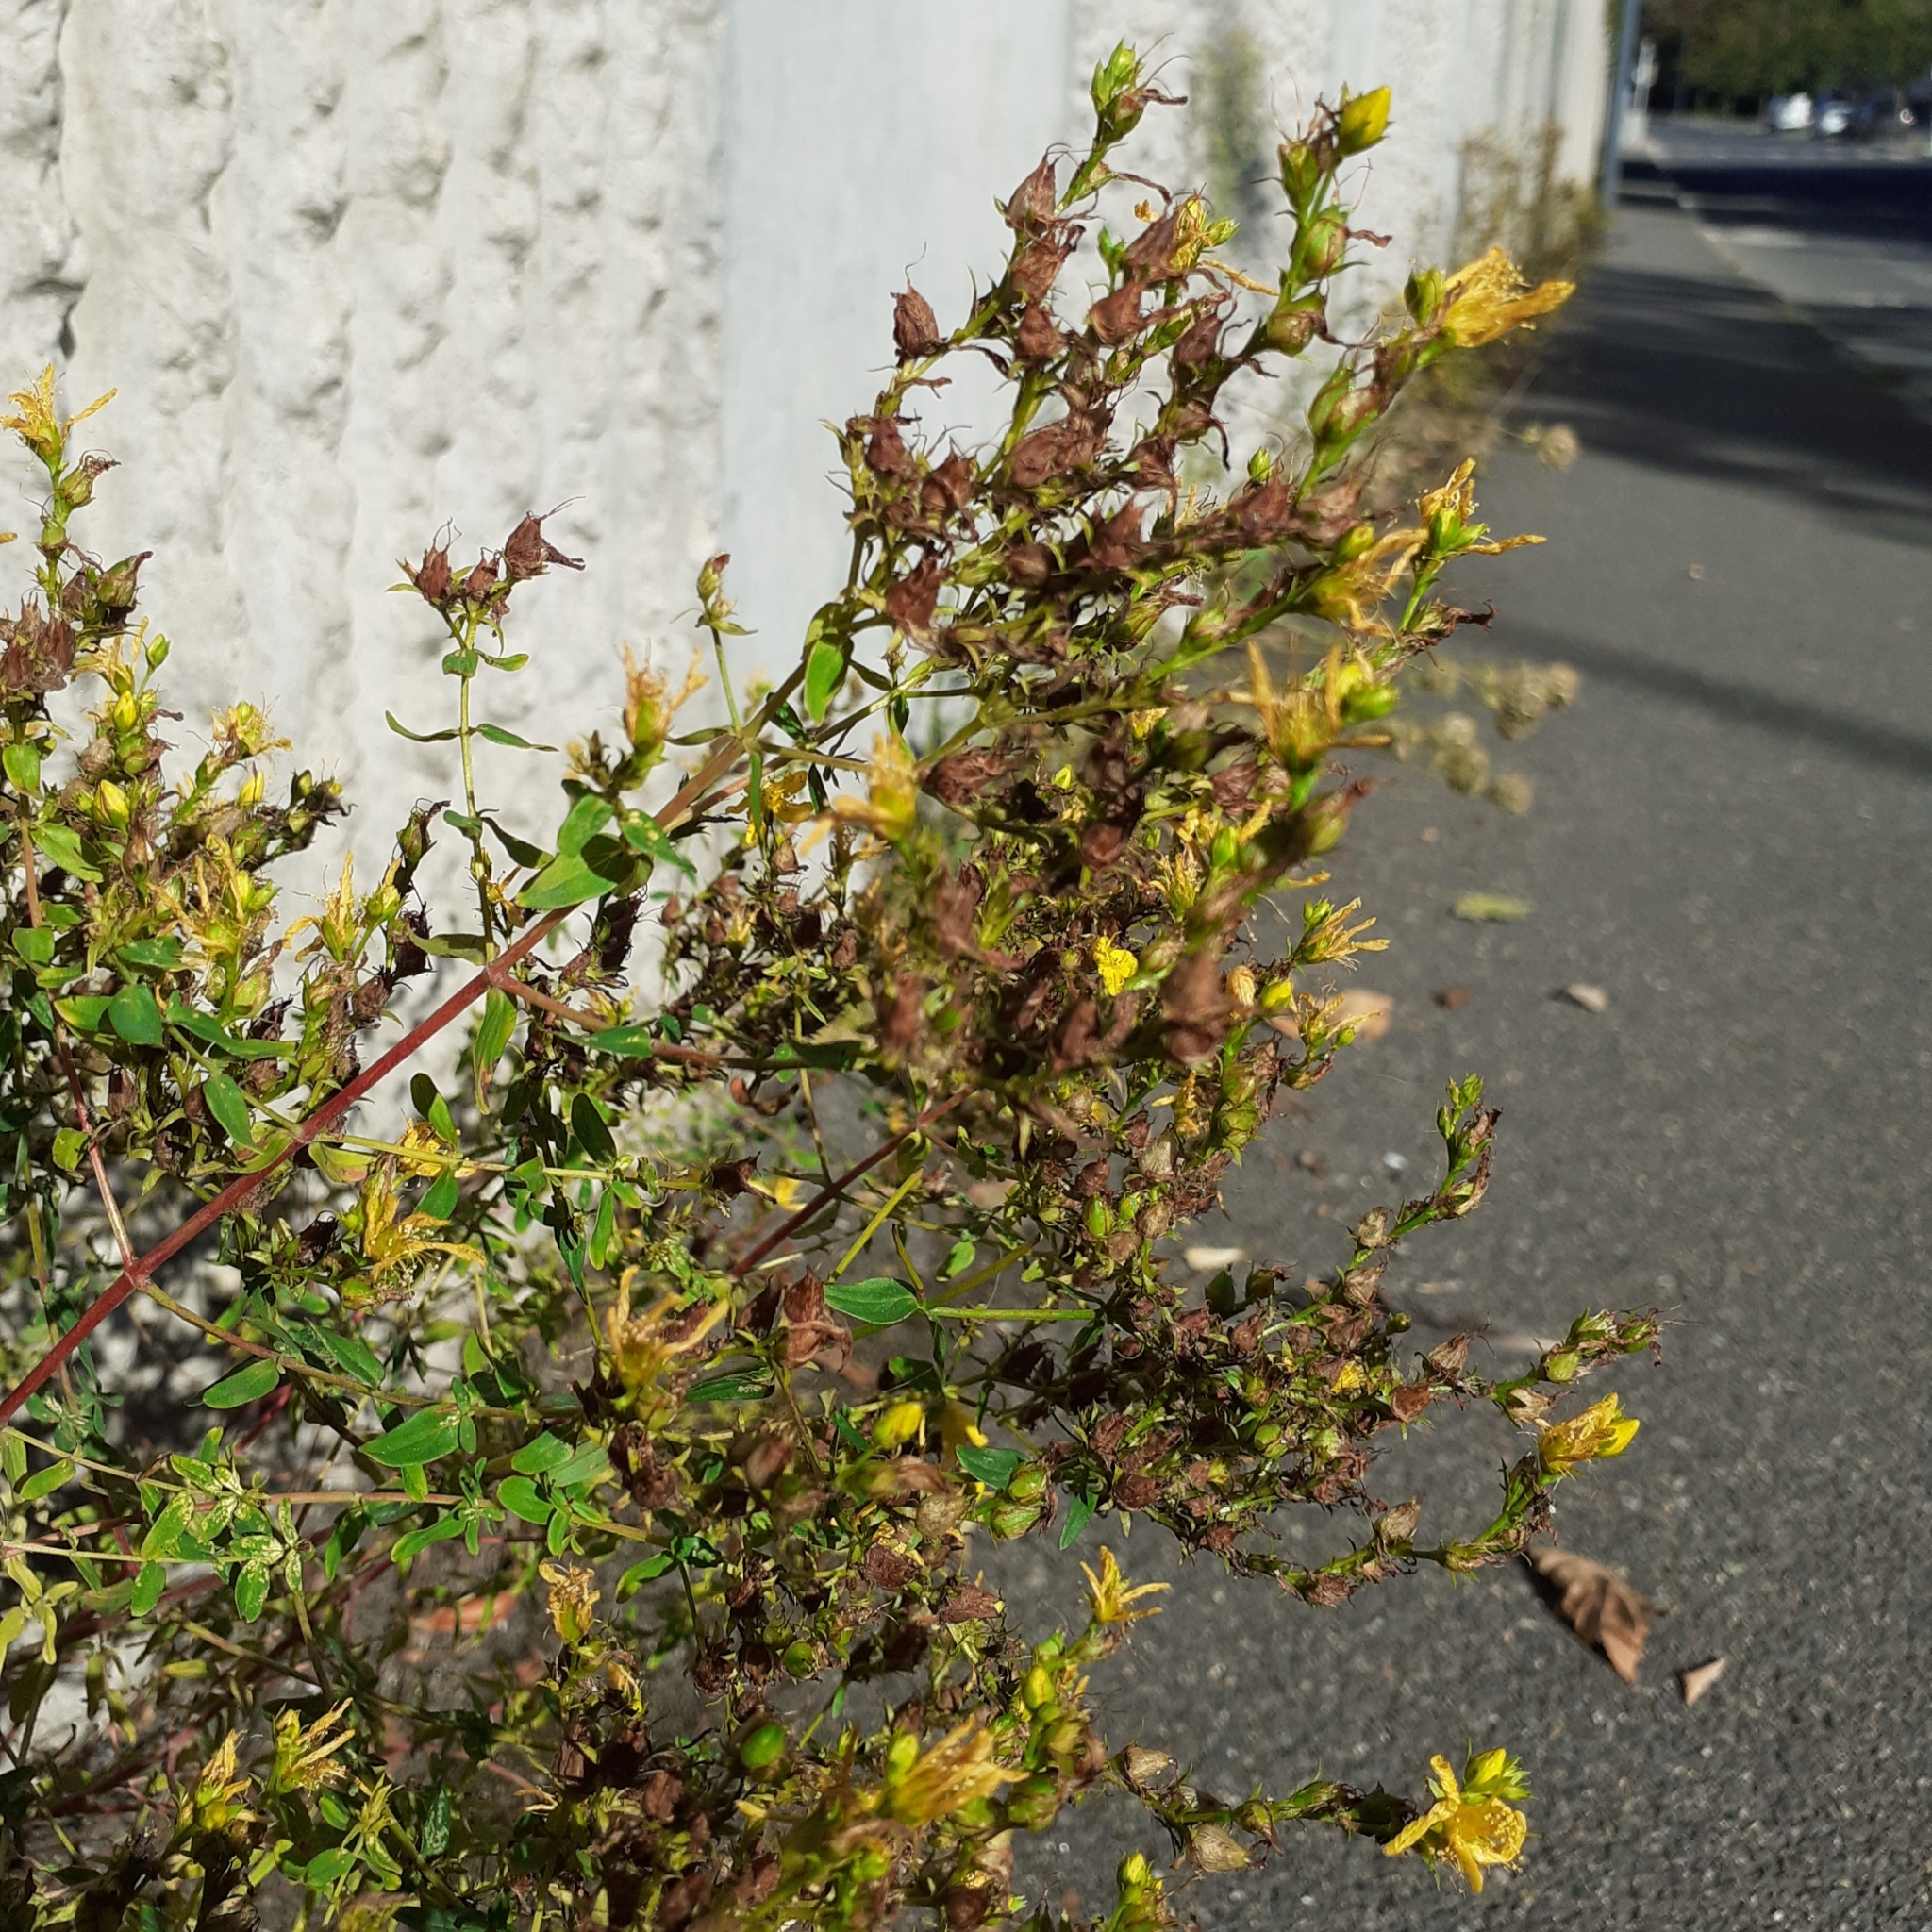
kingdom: Plantae
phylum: Tracheophyta
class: Magnoliopsida
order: Malpighiales
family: Hypericaceae
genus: Hypericum
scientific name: Hypericum perforatum
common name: Common st. johnswort
